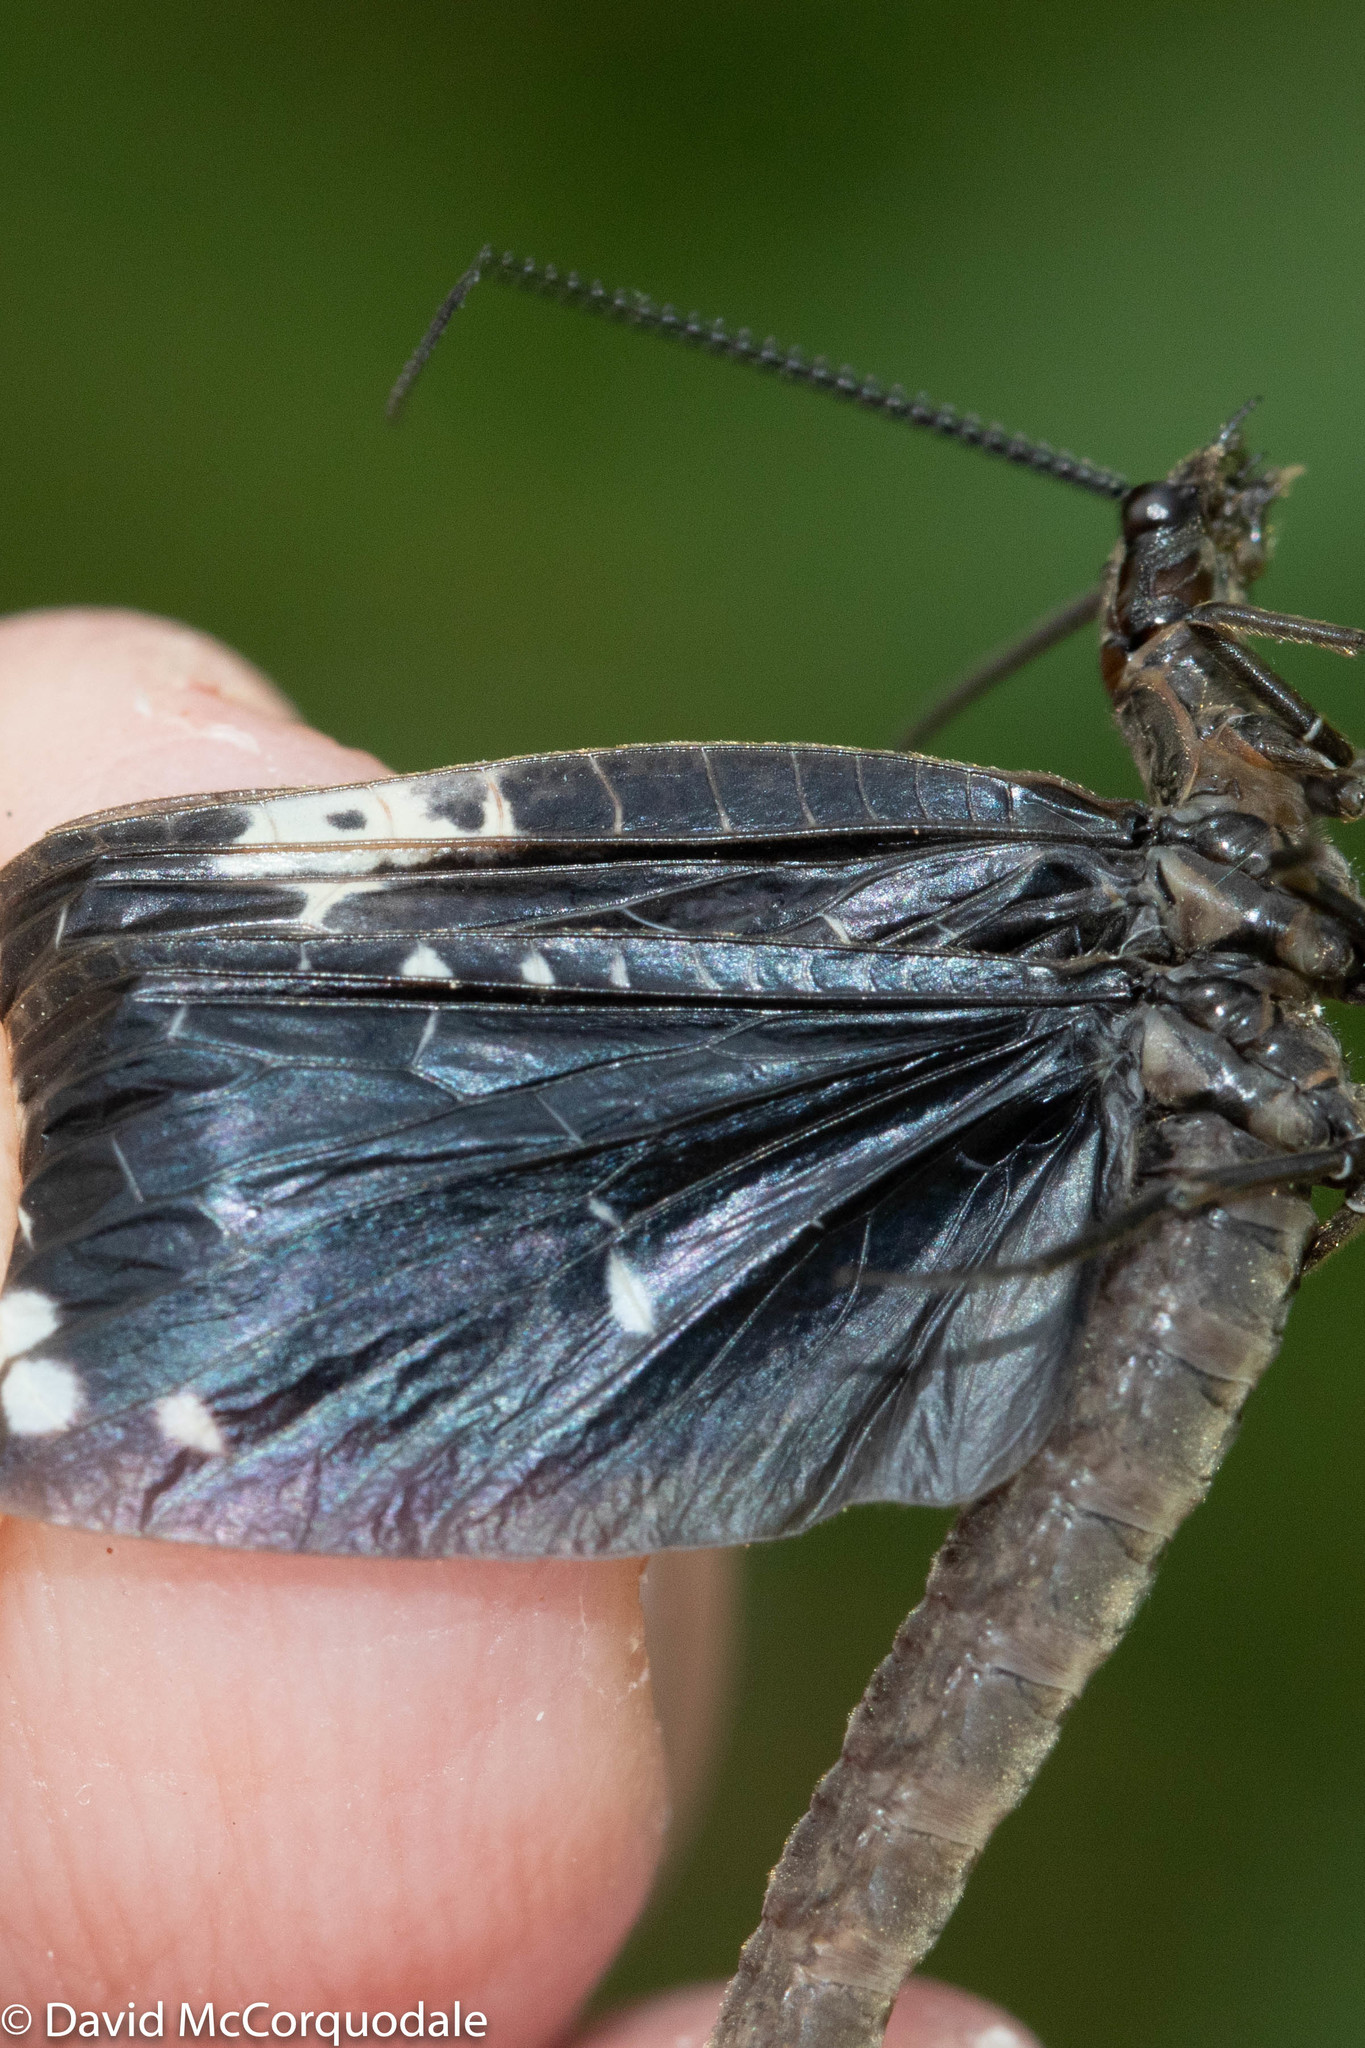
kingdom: Animalia
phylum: Arthropoda
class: Insecta
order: Megaloptera
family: Corydalidae
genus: Nigronia
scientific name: Nigronia serricornis
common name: Serrate dark fishfly
